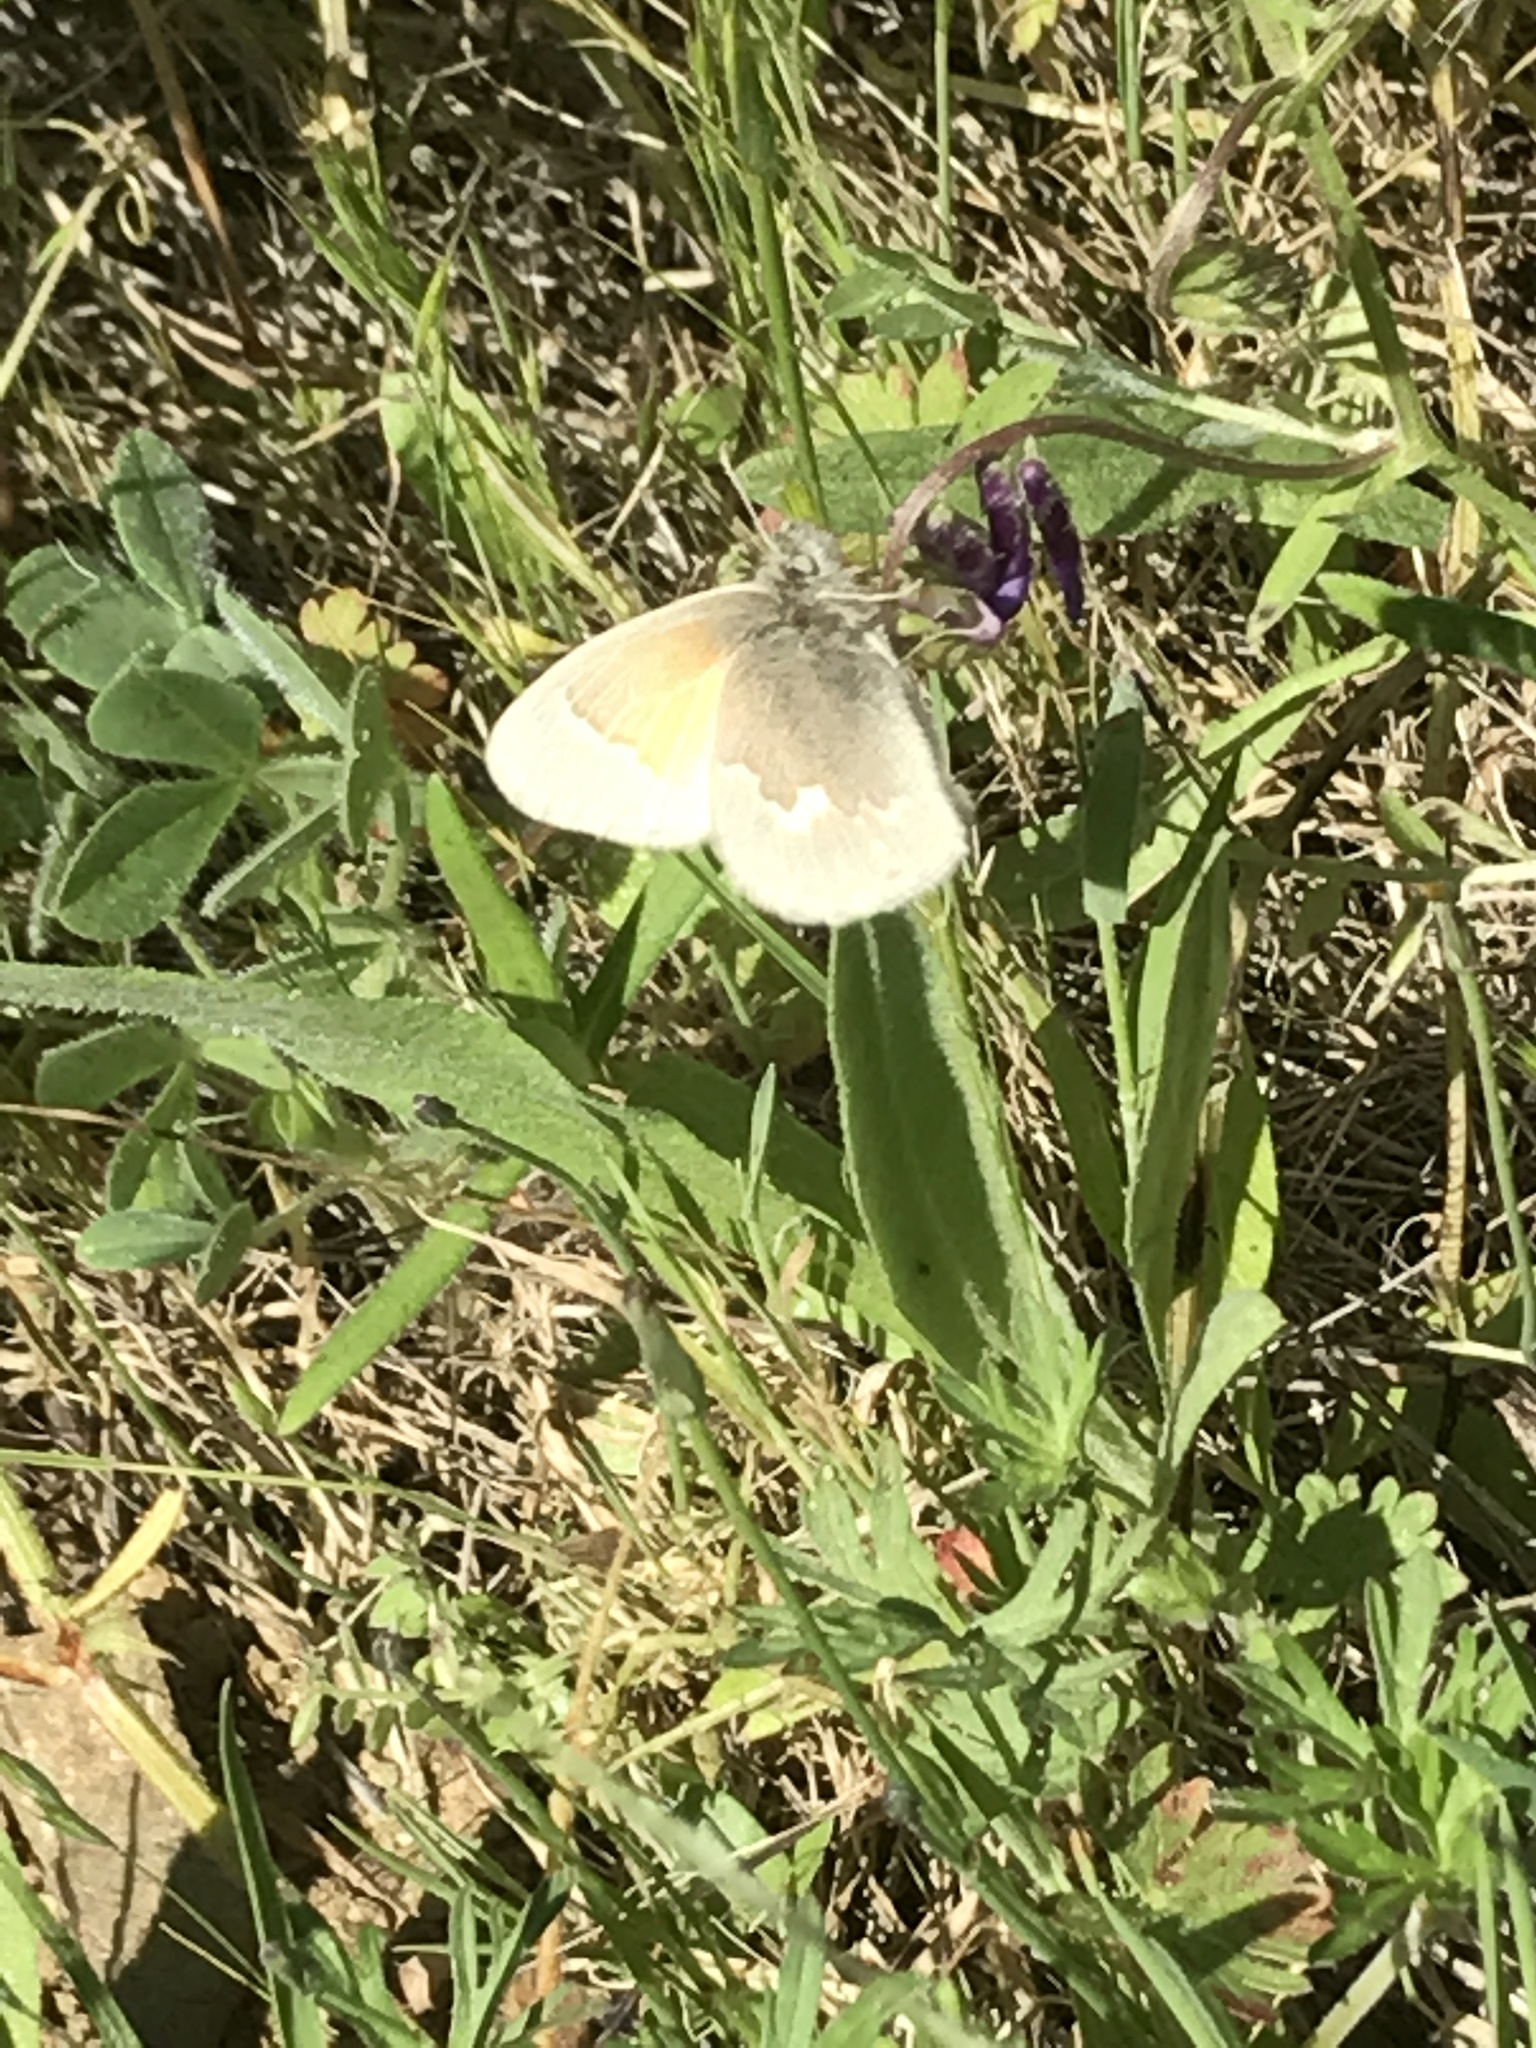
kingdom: Animalia
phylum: Arthropoda
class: Insecta
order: Lepidoptera
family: Nymphalidae
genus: Coenonympha
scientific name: Coenonympha california
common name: Common ringlet
